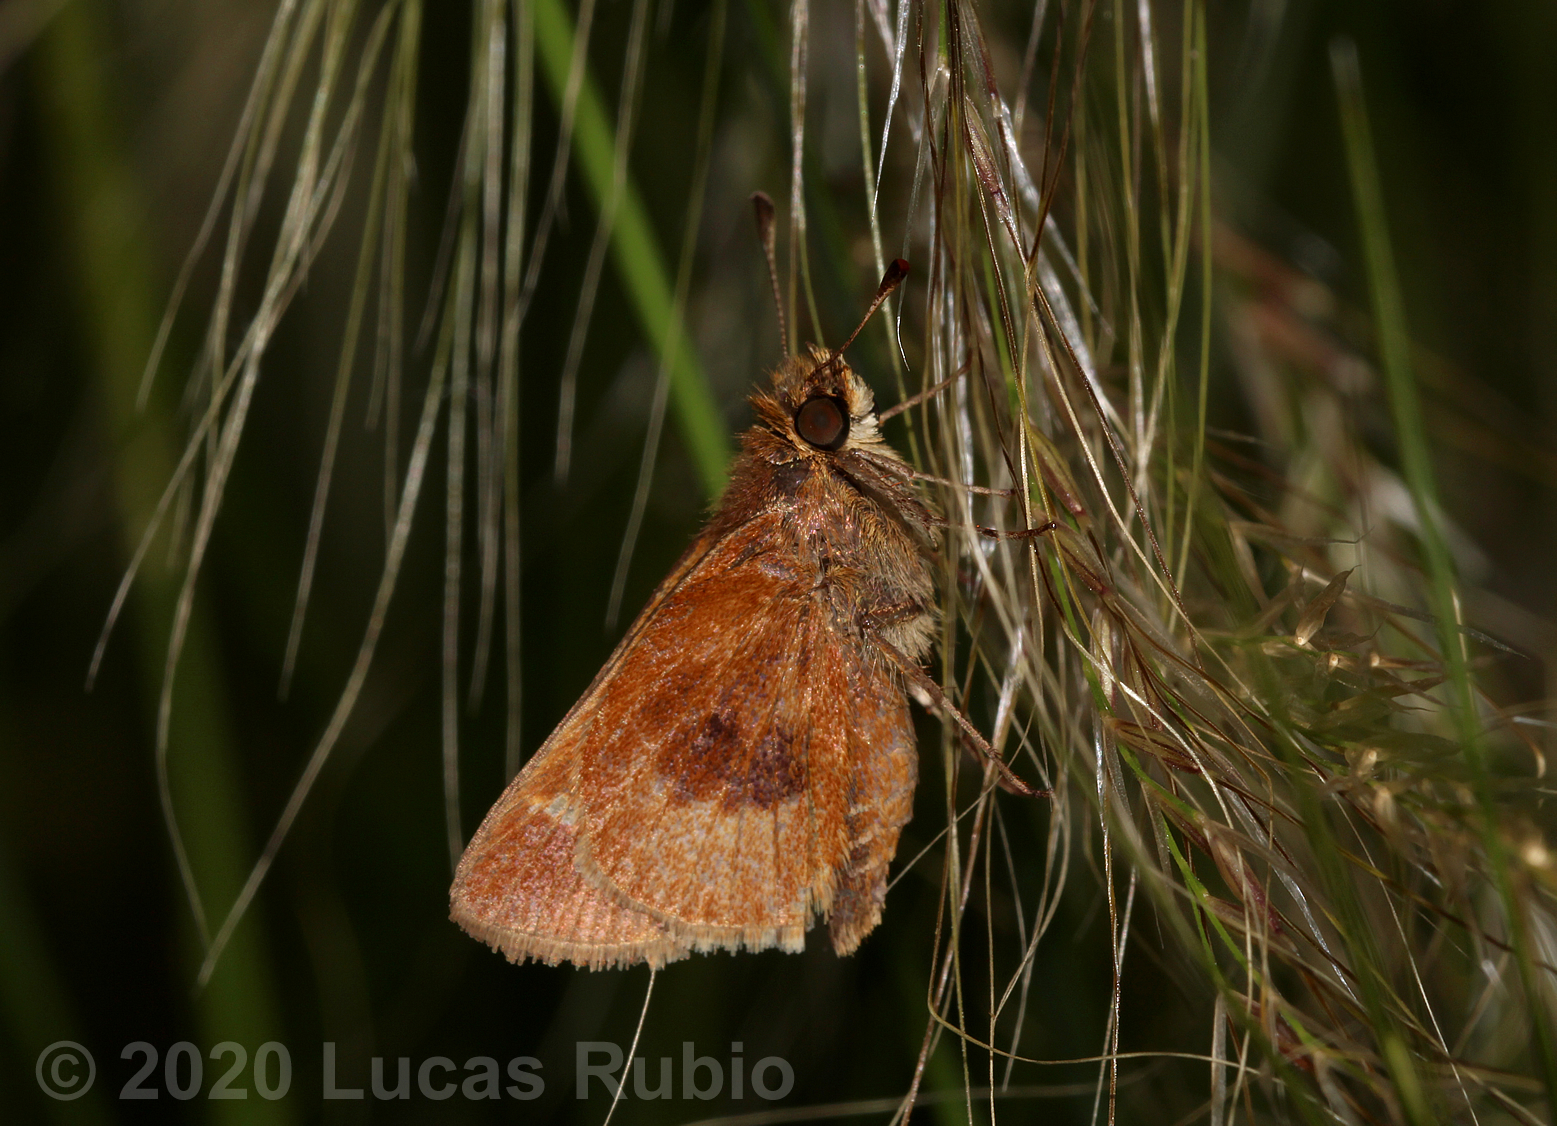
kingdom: Animalia
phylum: Arthropoda
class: Insecta
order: Lepidoptera
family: Hesperiidae
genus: Polites
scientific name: Polites premnas
